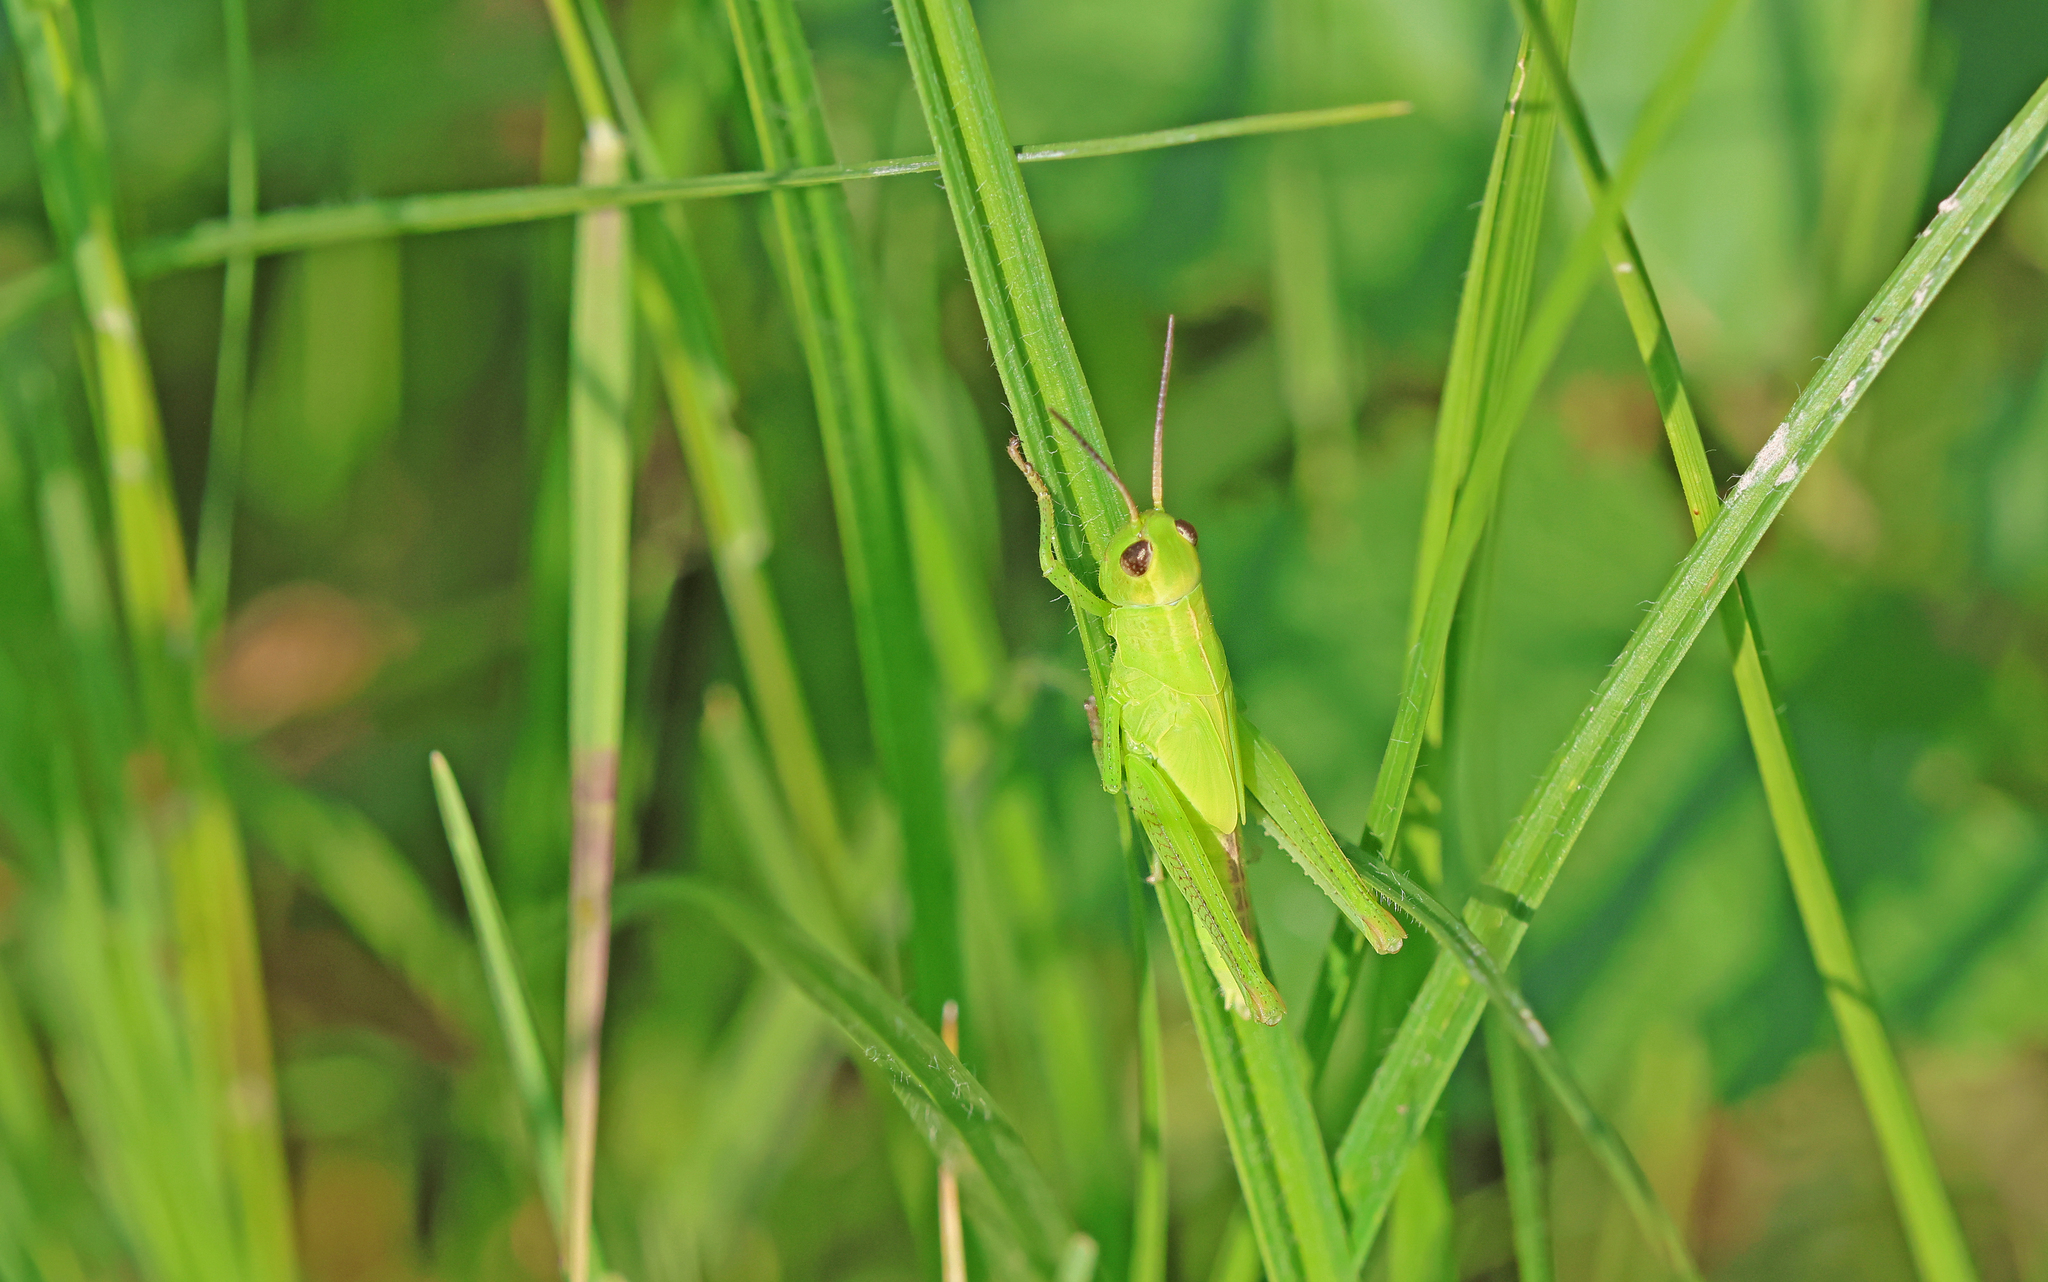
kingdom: Animalia
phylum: Arthropoda
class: Insecta
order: Orthoptera
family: Acrididae
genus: Mecostethus
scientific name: Mecostethus parapleurus
